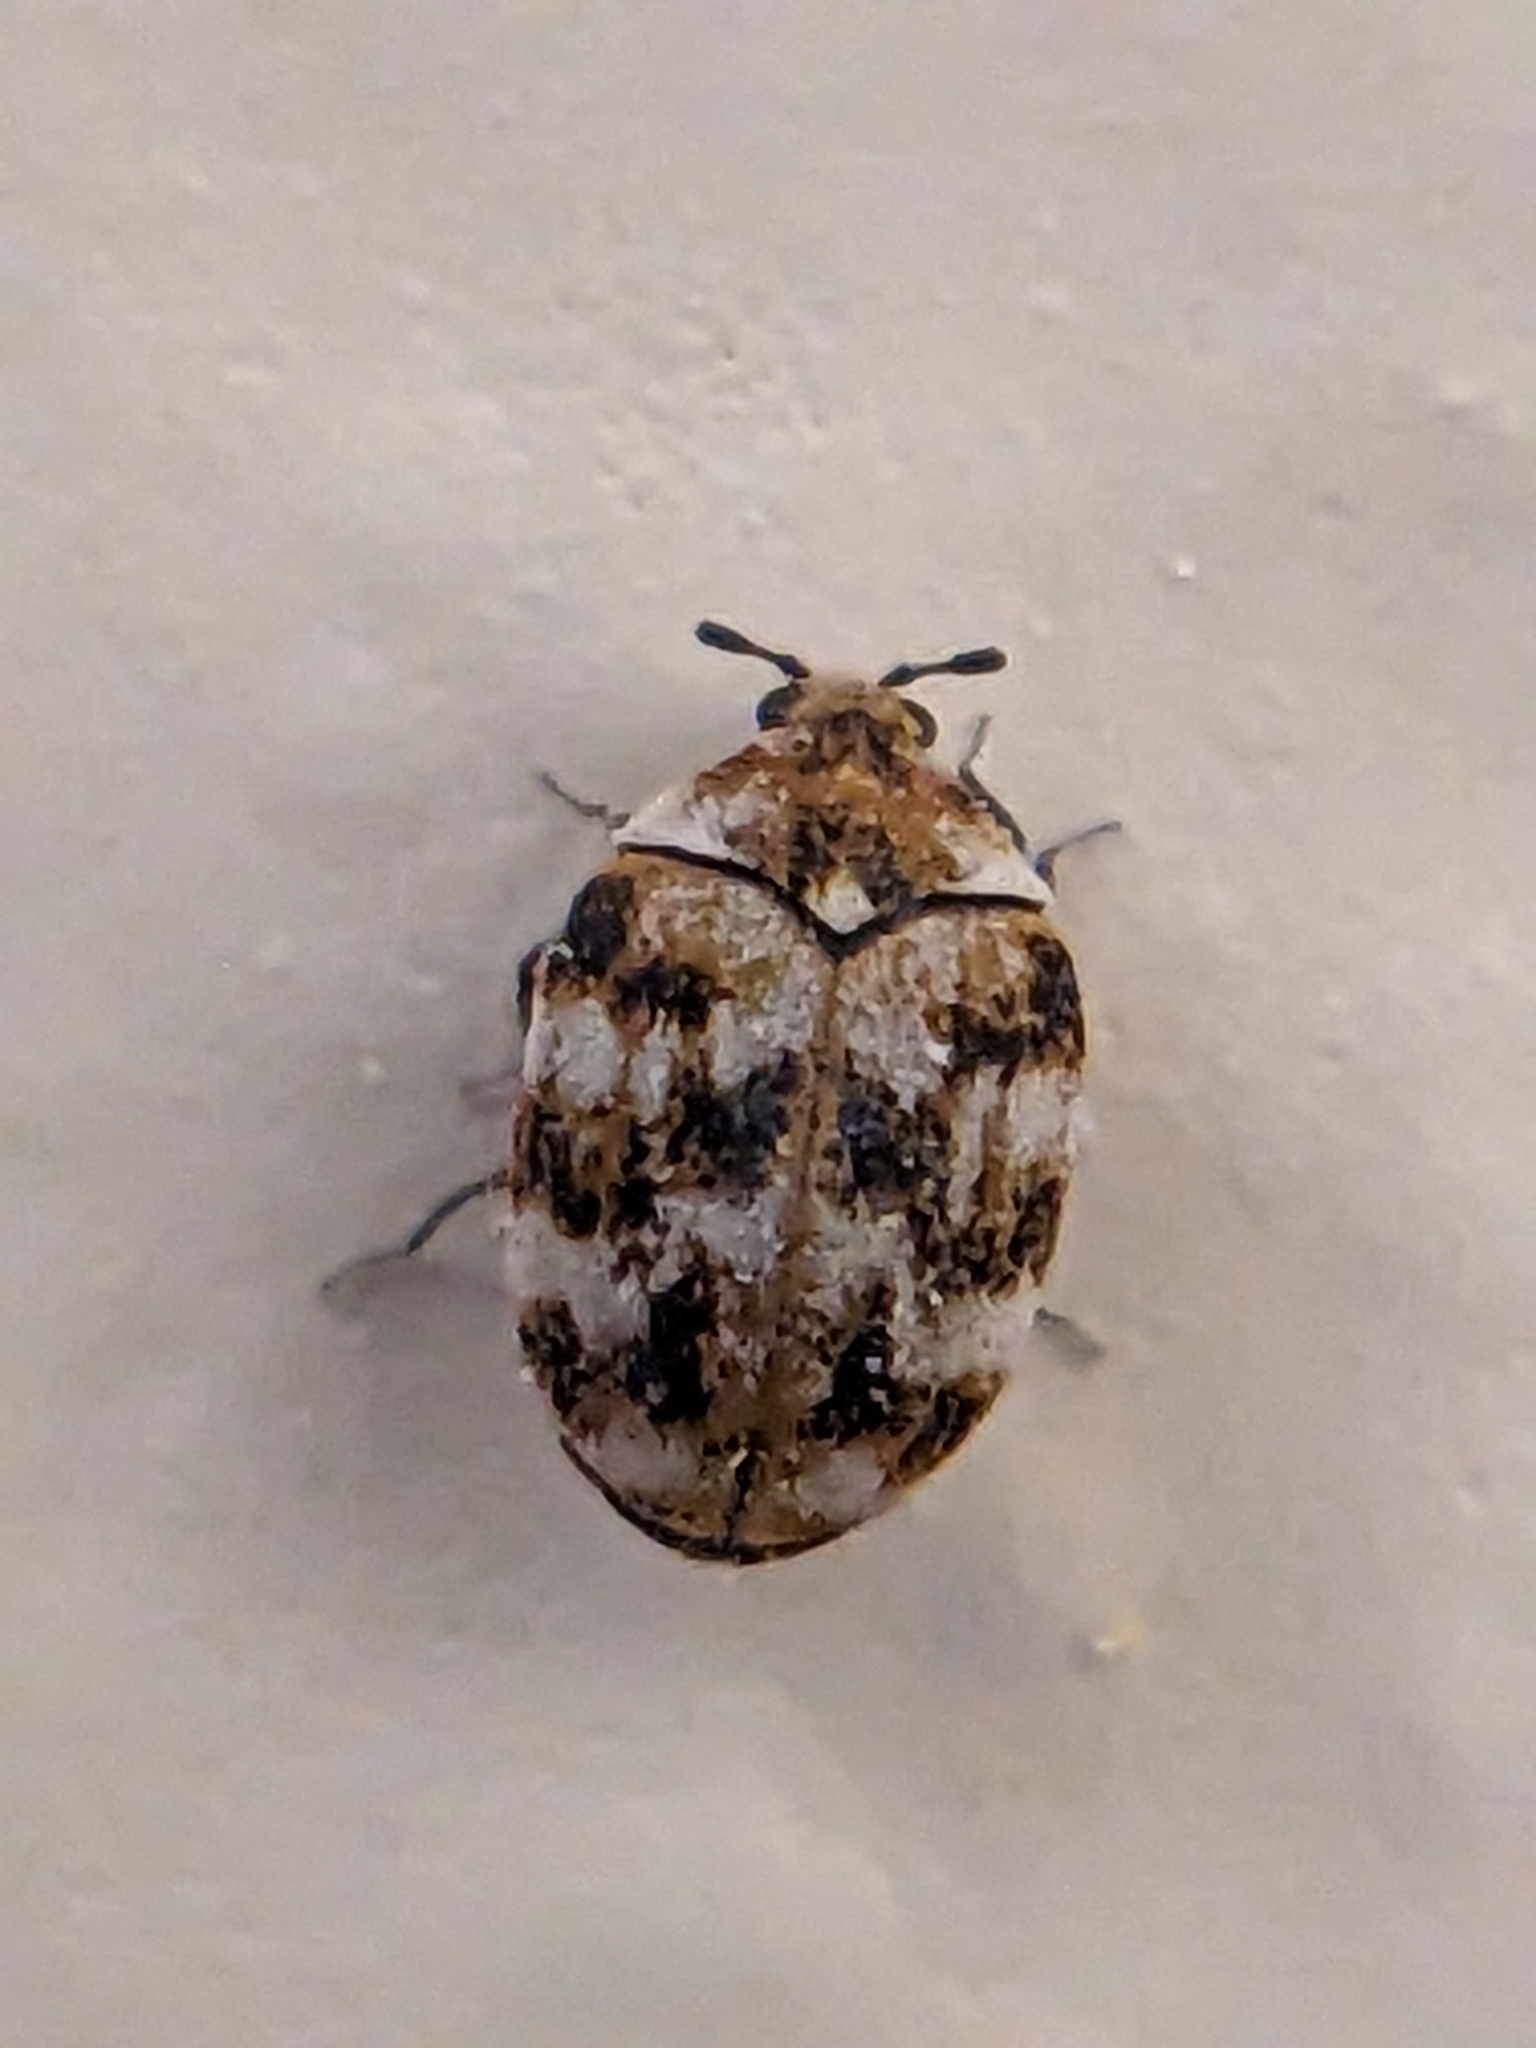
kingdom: Animalia
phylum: Arthropoda
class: Insecta
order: Coleoptera
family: Dermestidae
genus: Anthrenus
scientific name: Anthrenus verbasci
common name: Varied carpet beetle
